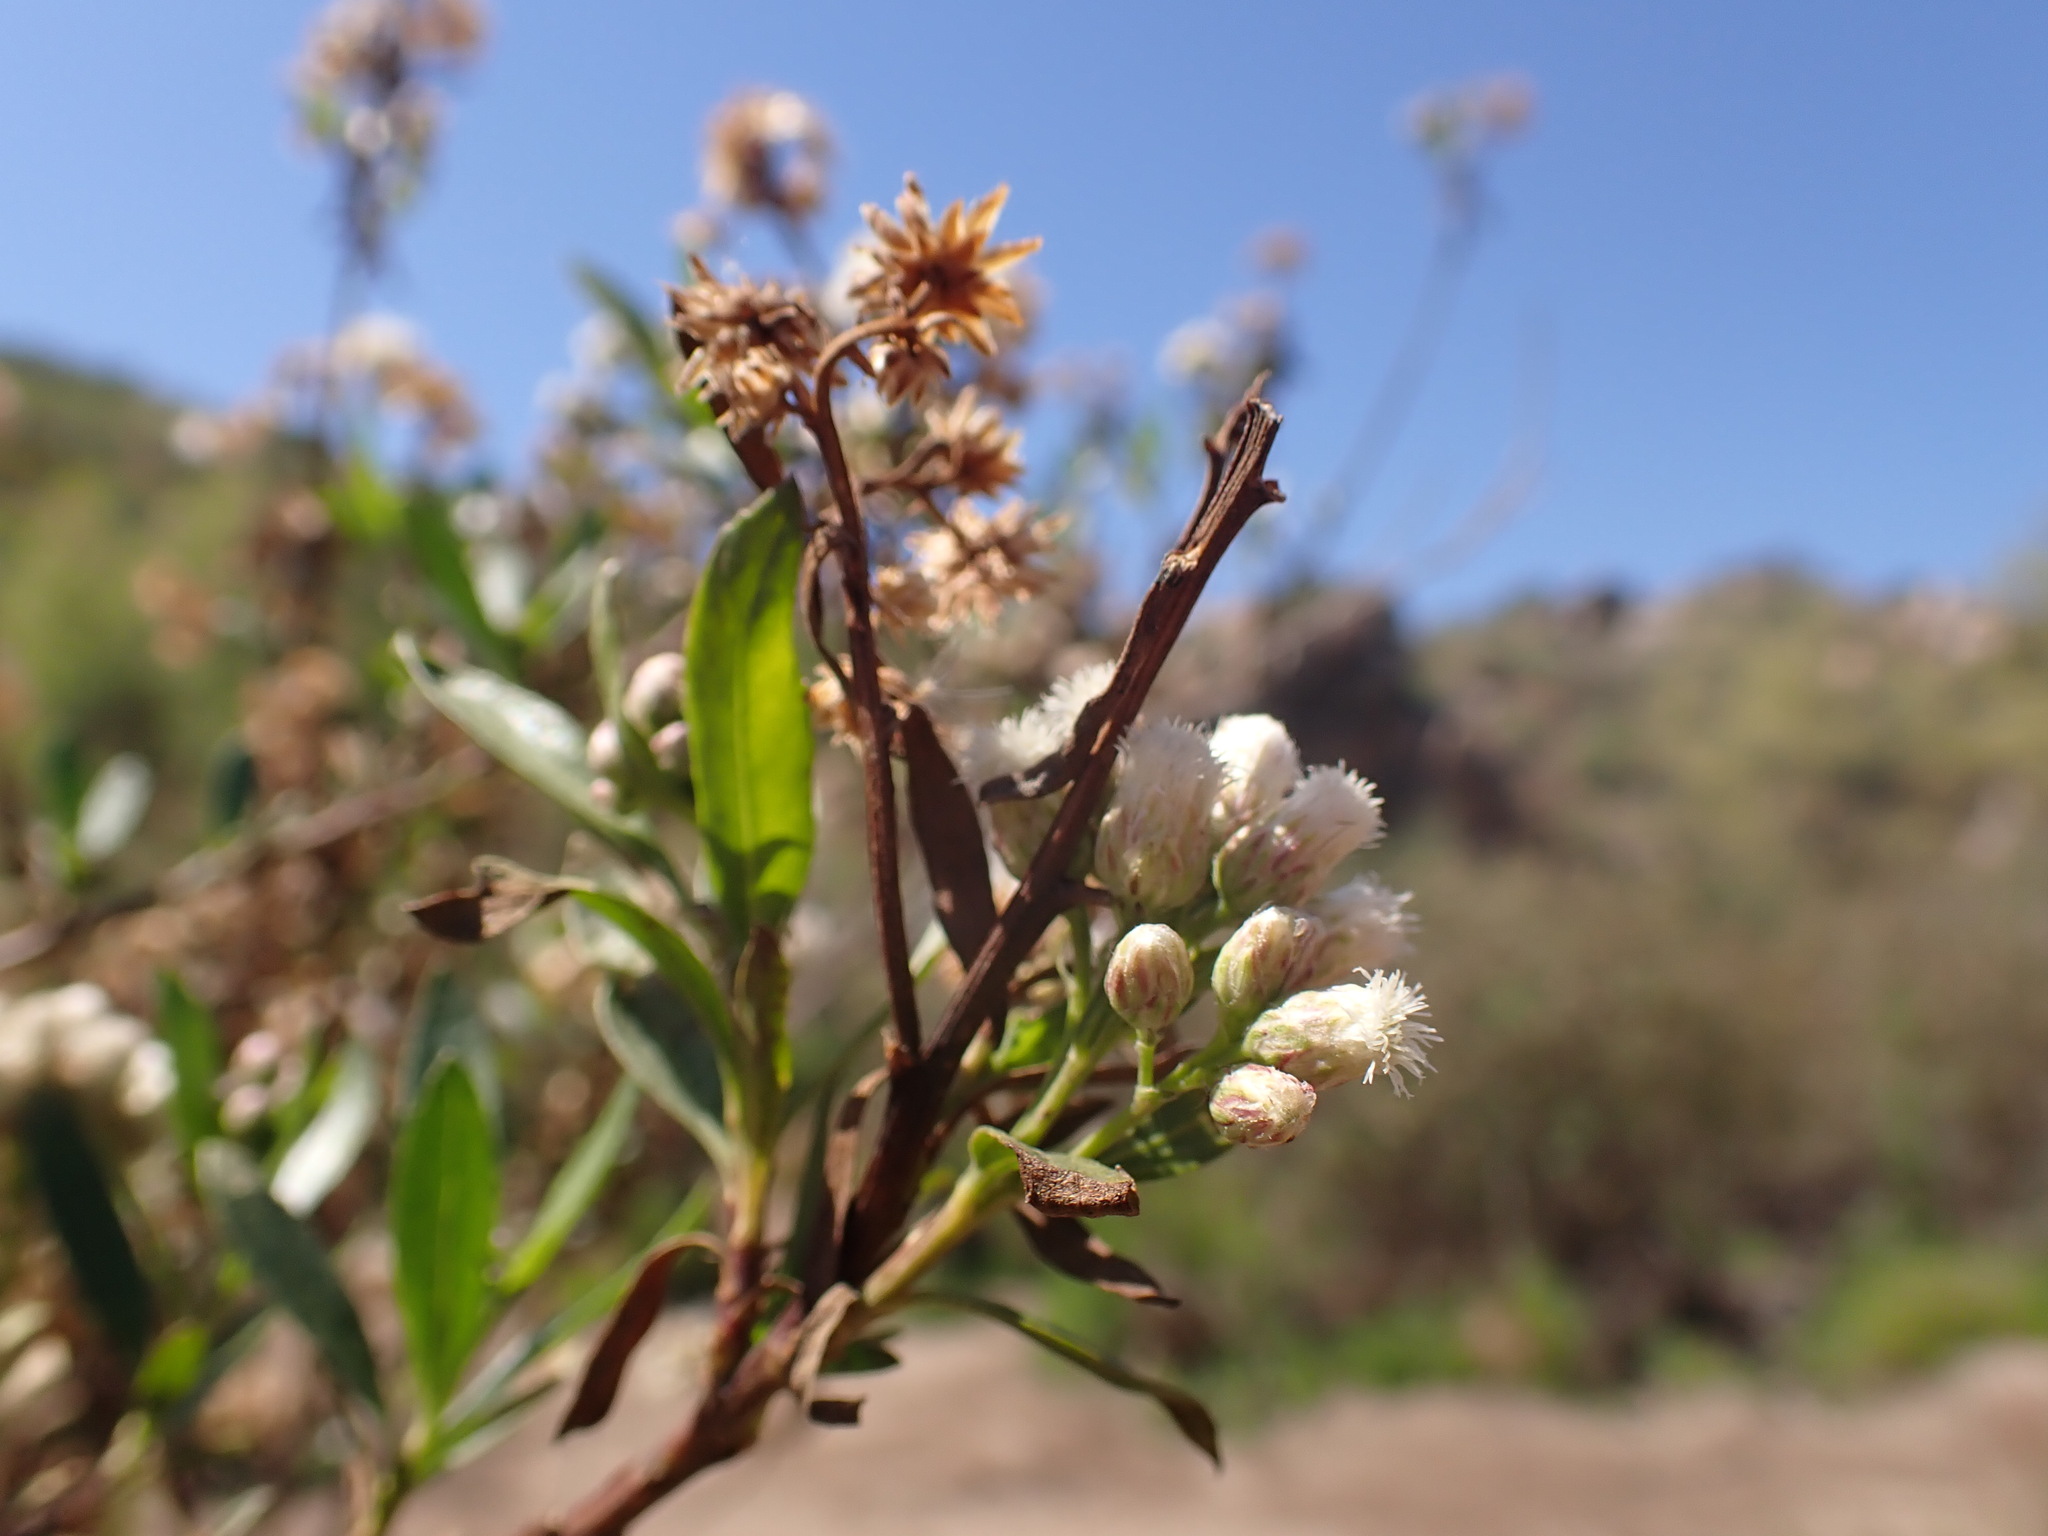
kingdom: Plantae
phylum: Tracheophyta
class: Magnoliopsida
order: Asterales
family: Asteraceae
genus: Baccharis
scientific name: Baccharis salicifolia
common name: Sticky baccharis
